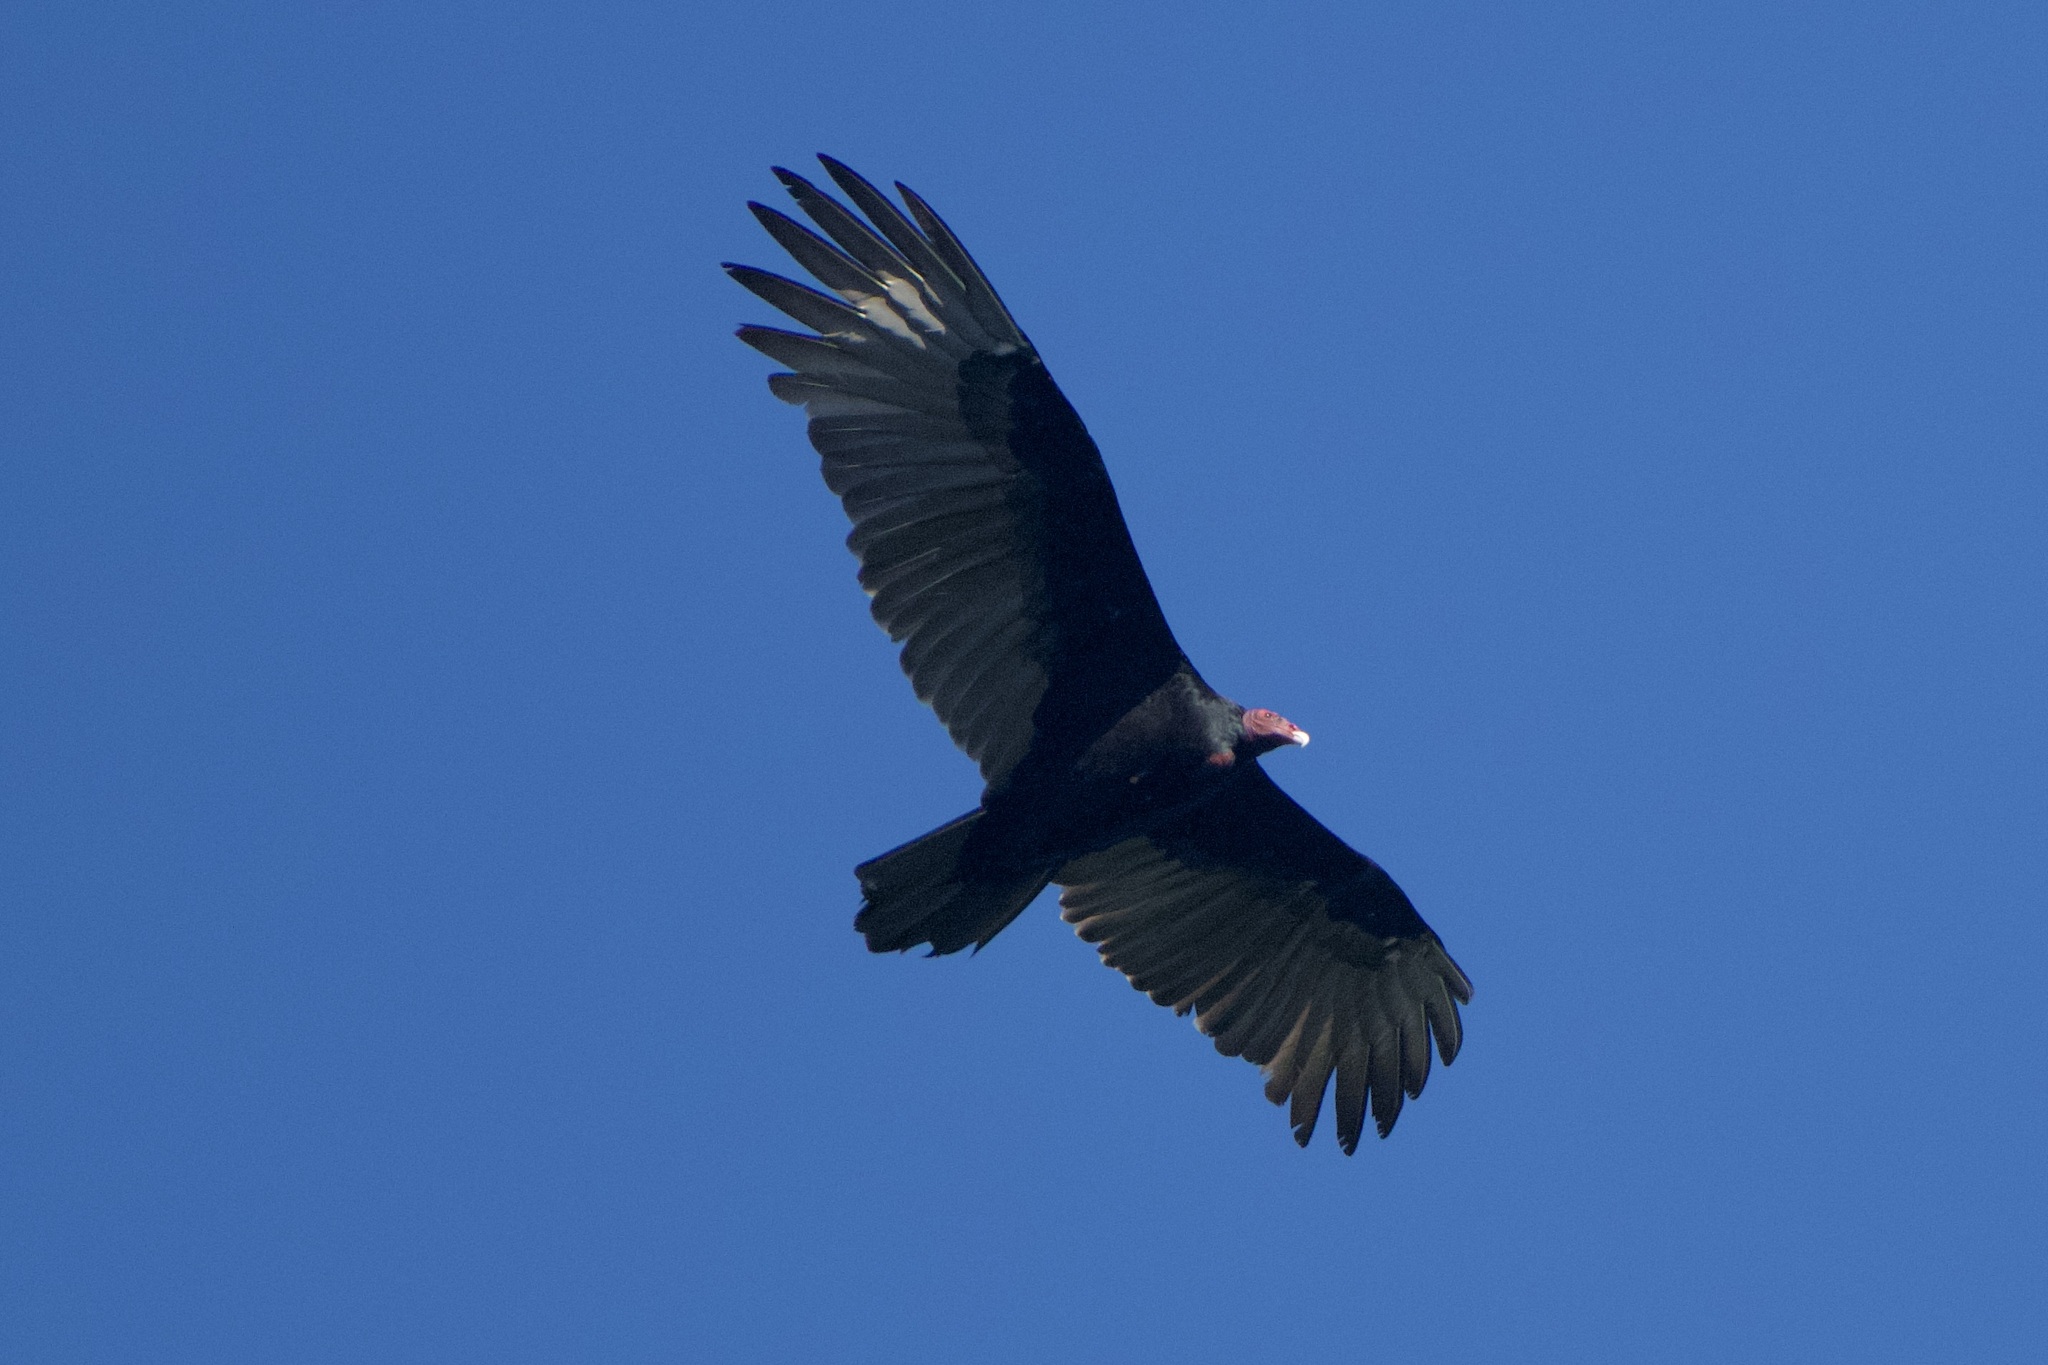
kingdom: Animalia
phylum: Chordata
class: Aves
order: Accipitriformes
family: Cathartidae
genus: Cathartes
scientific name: Cathartes aura
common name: Turkey vulture
